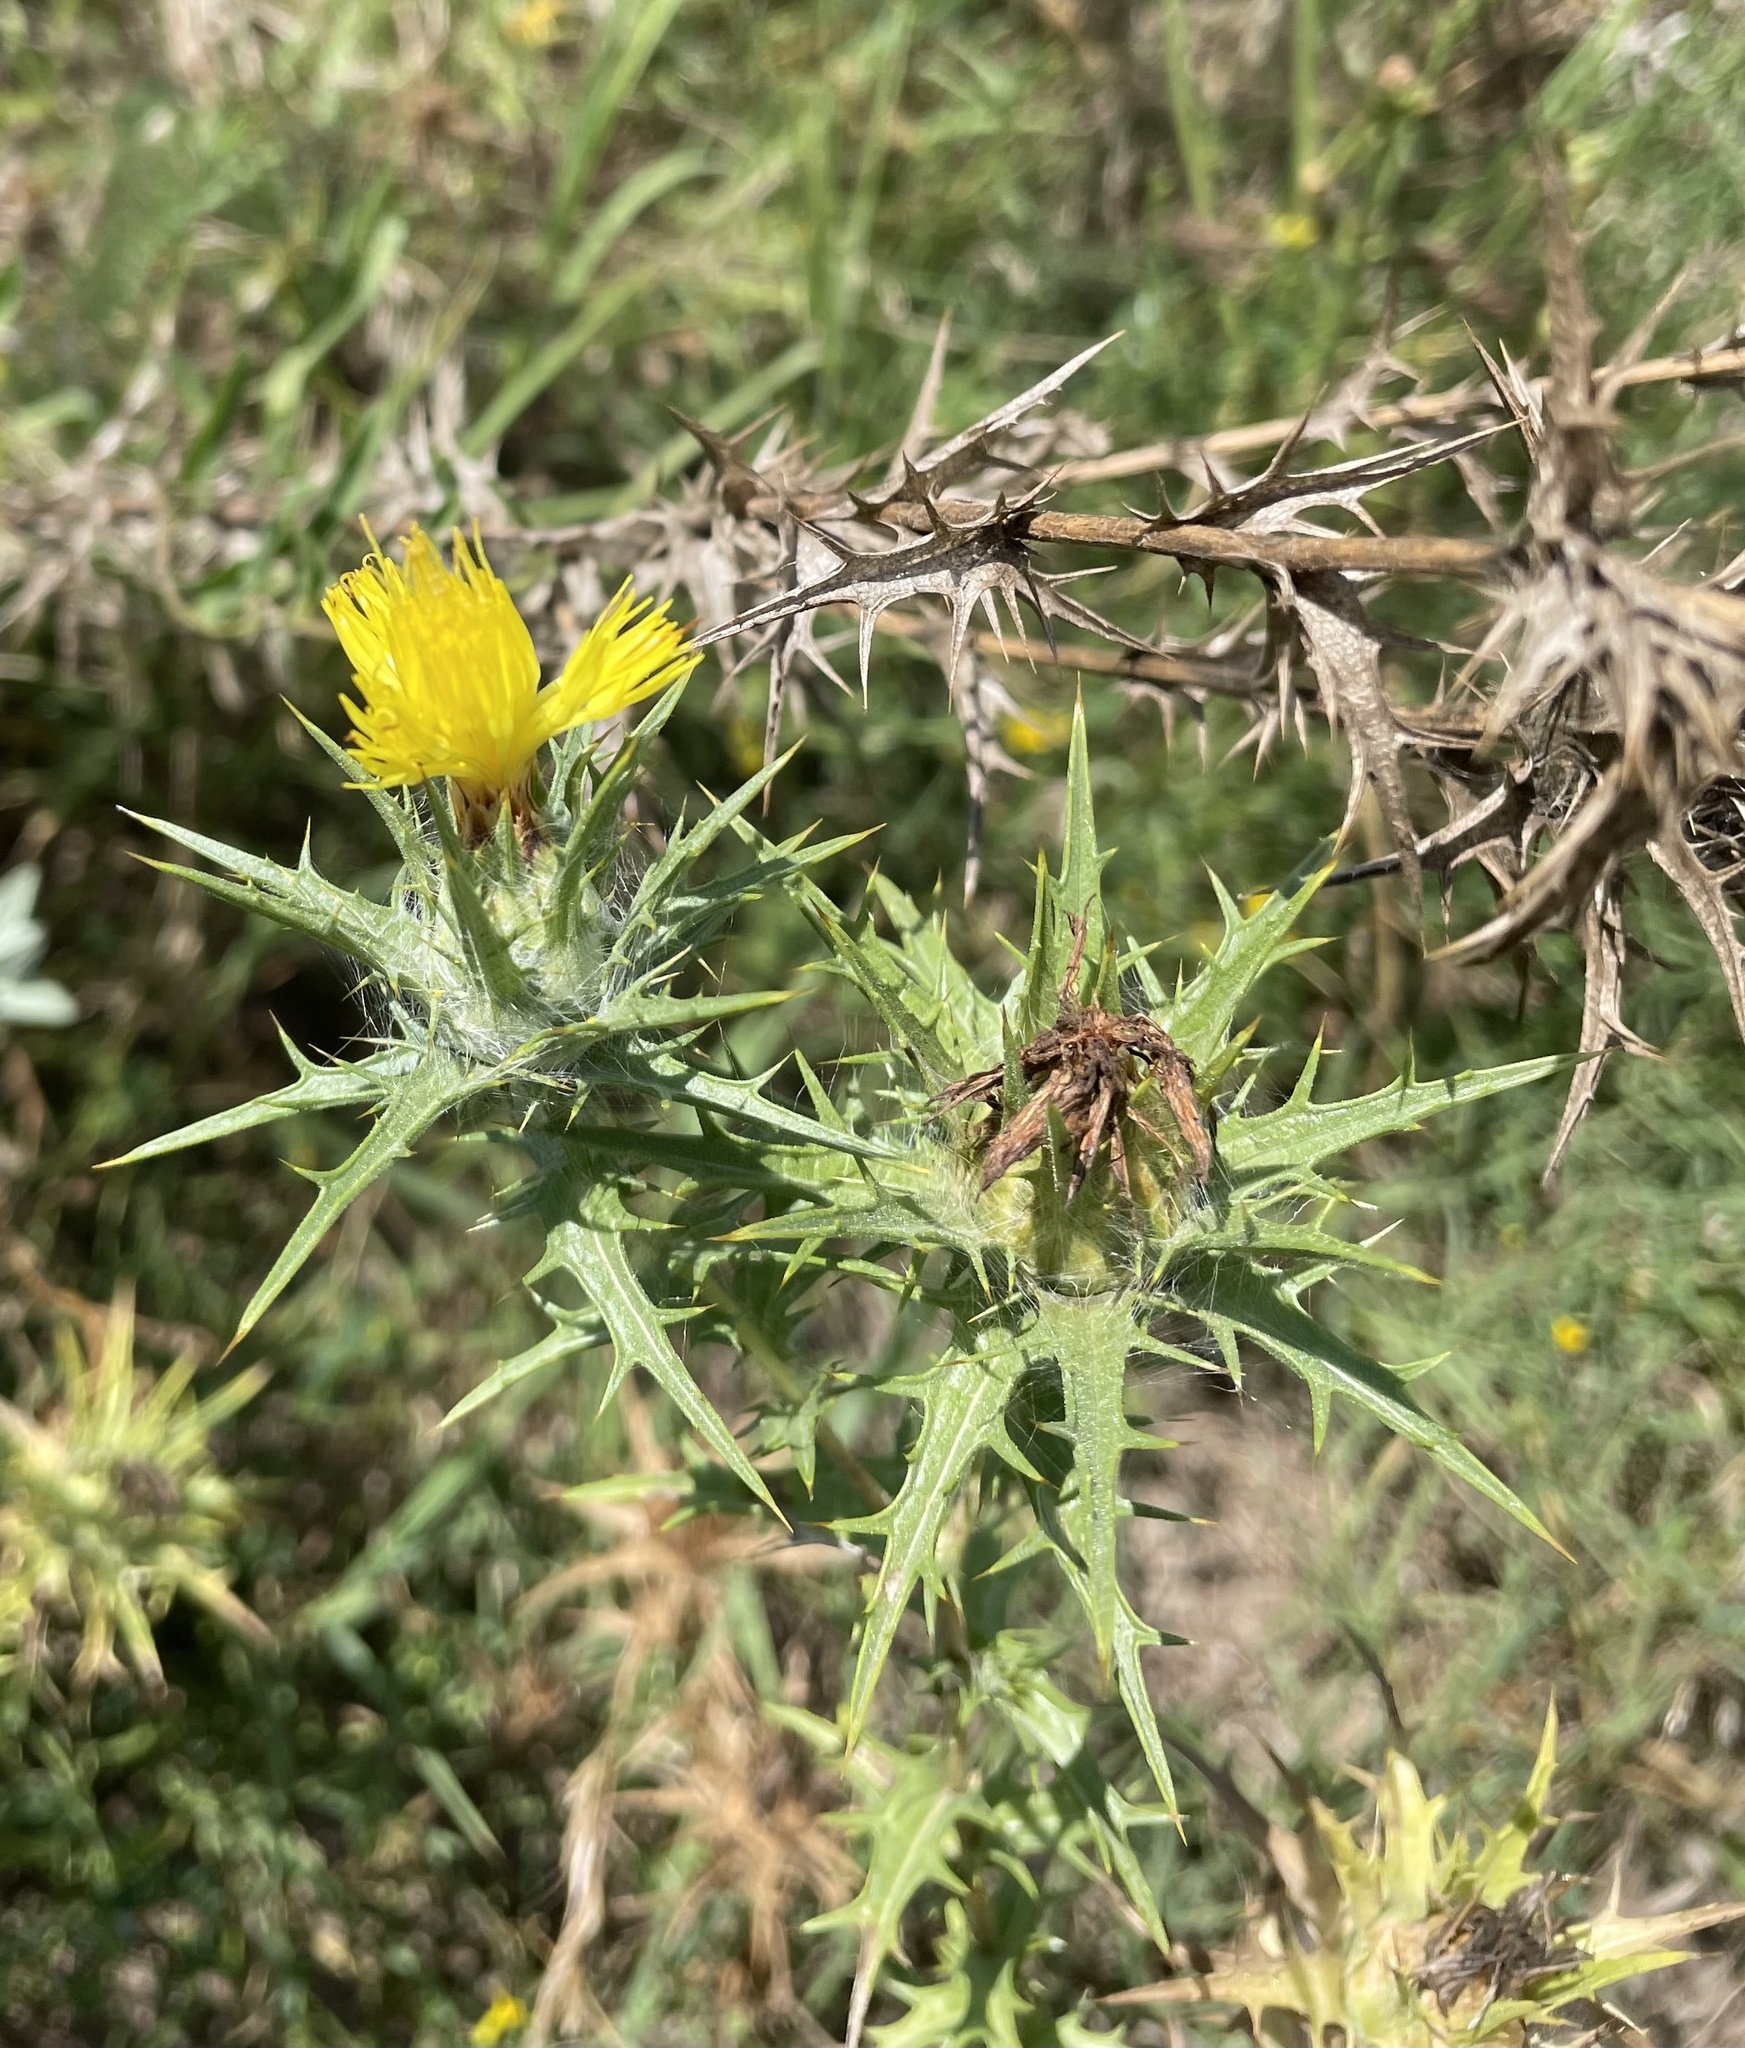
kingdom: Plantae
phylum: Tracheophyta
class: Magnoliopsida
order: Asterales
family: Asteraceae
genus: Carthamus
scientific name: Carthamus lanatus
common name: Downy safflower
